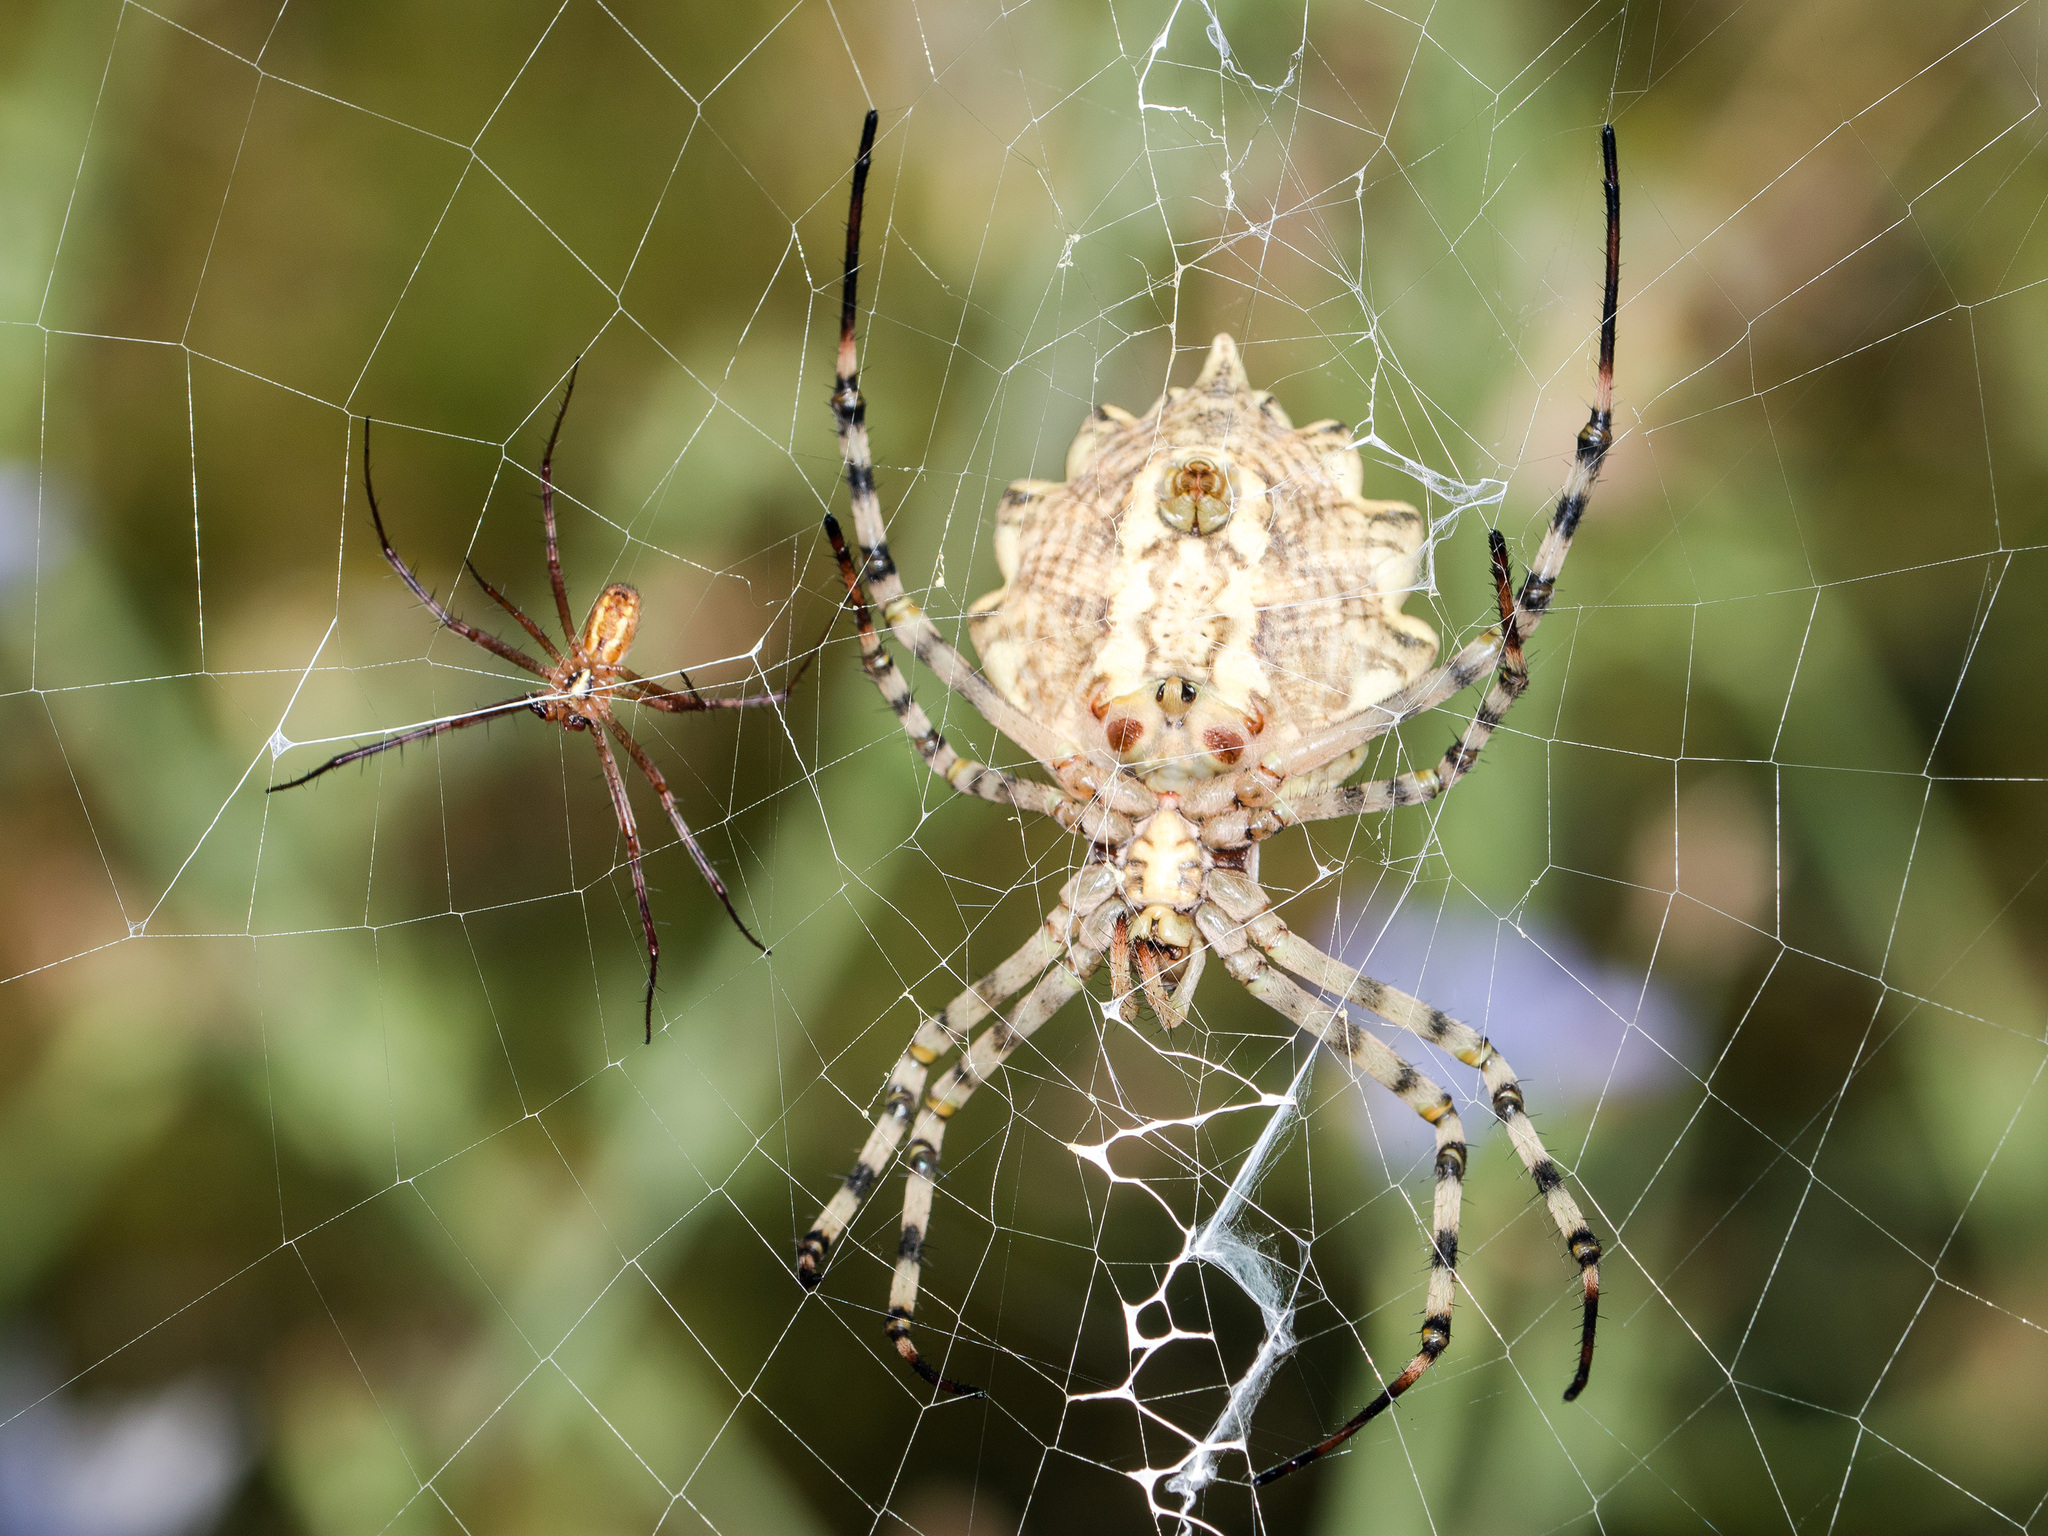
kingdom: Animalia
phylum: Arthropoda
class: Arachnida
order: Araneae
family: Araneidae
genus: Argiope
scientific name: Argiope bruennichi
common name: Wasp spider
